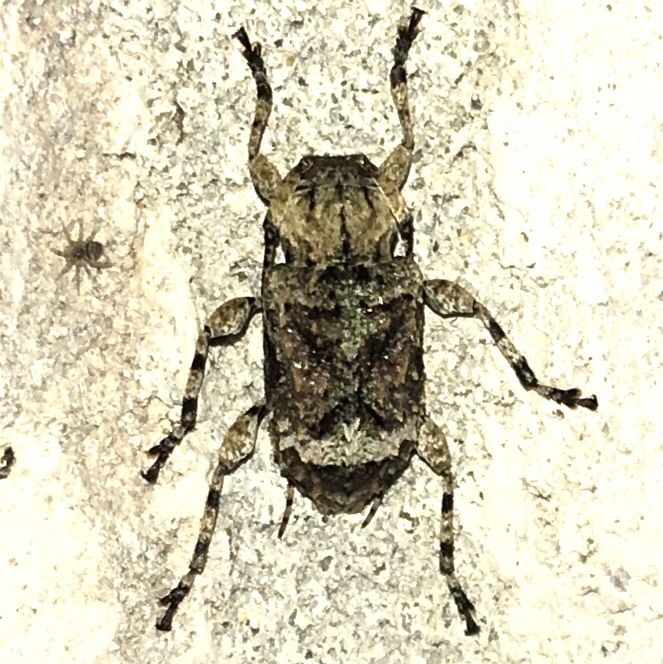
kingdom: Animalia
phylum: Arthropoda
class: Insecta
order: Coleoptera
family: Cerambycidae
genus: Leptostylus
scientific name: Leptostylus transversus
